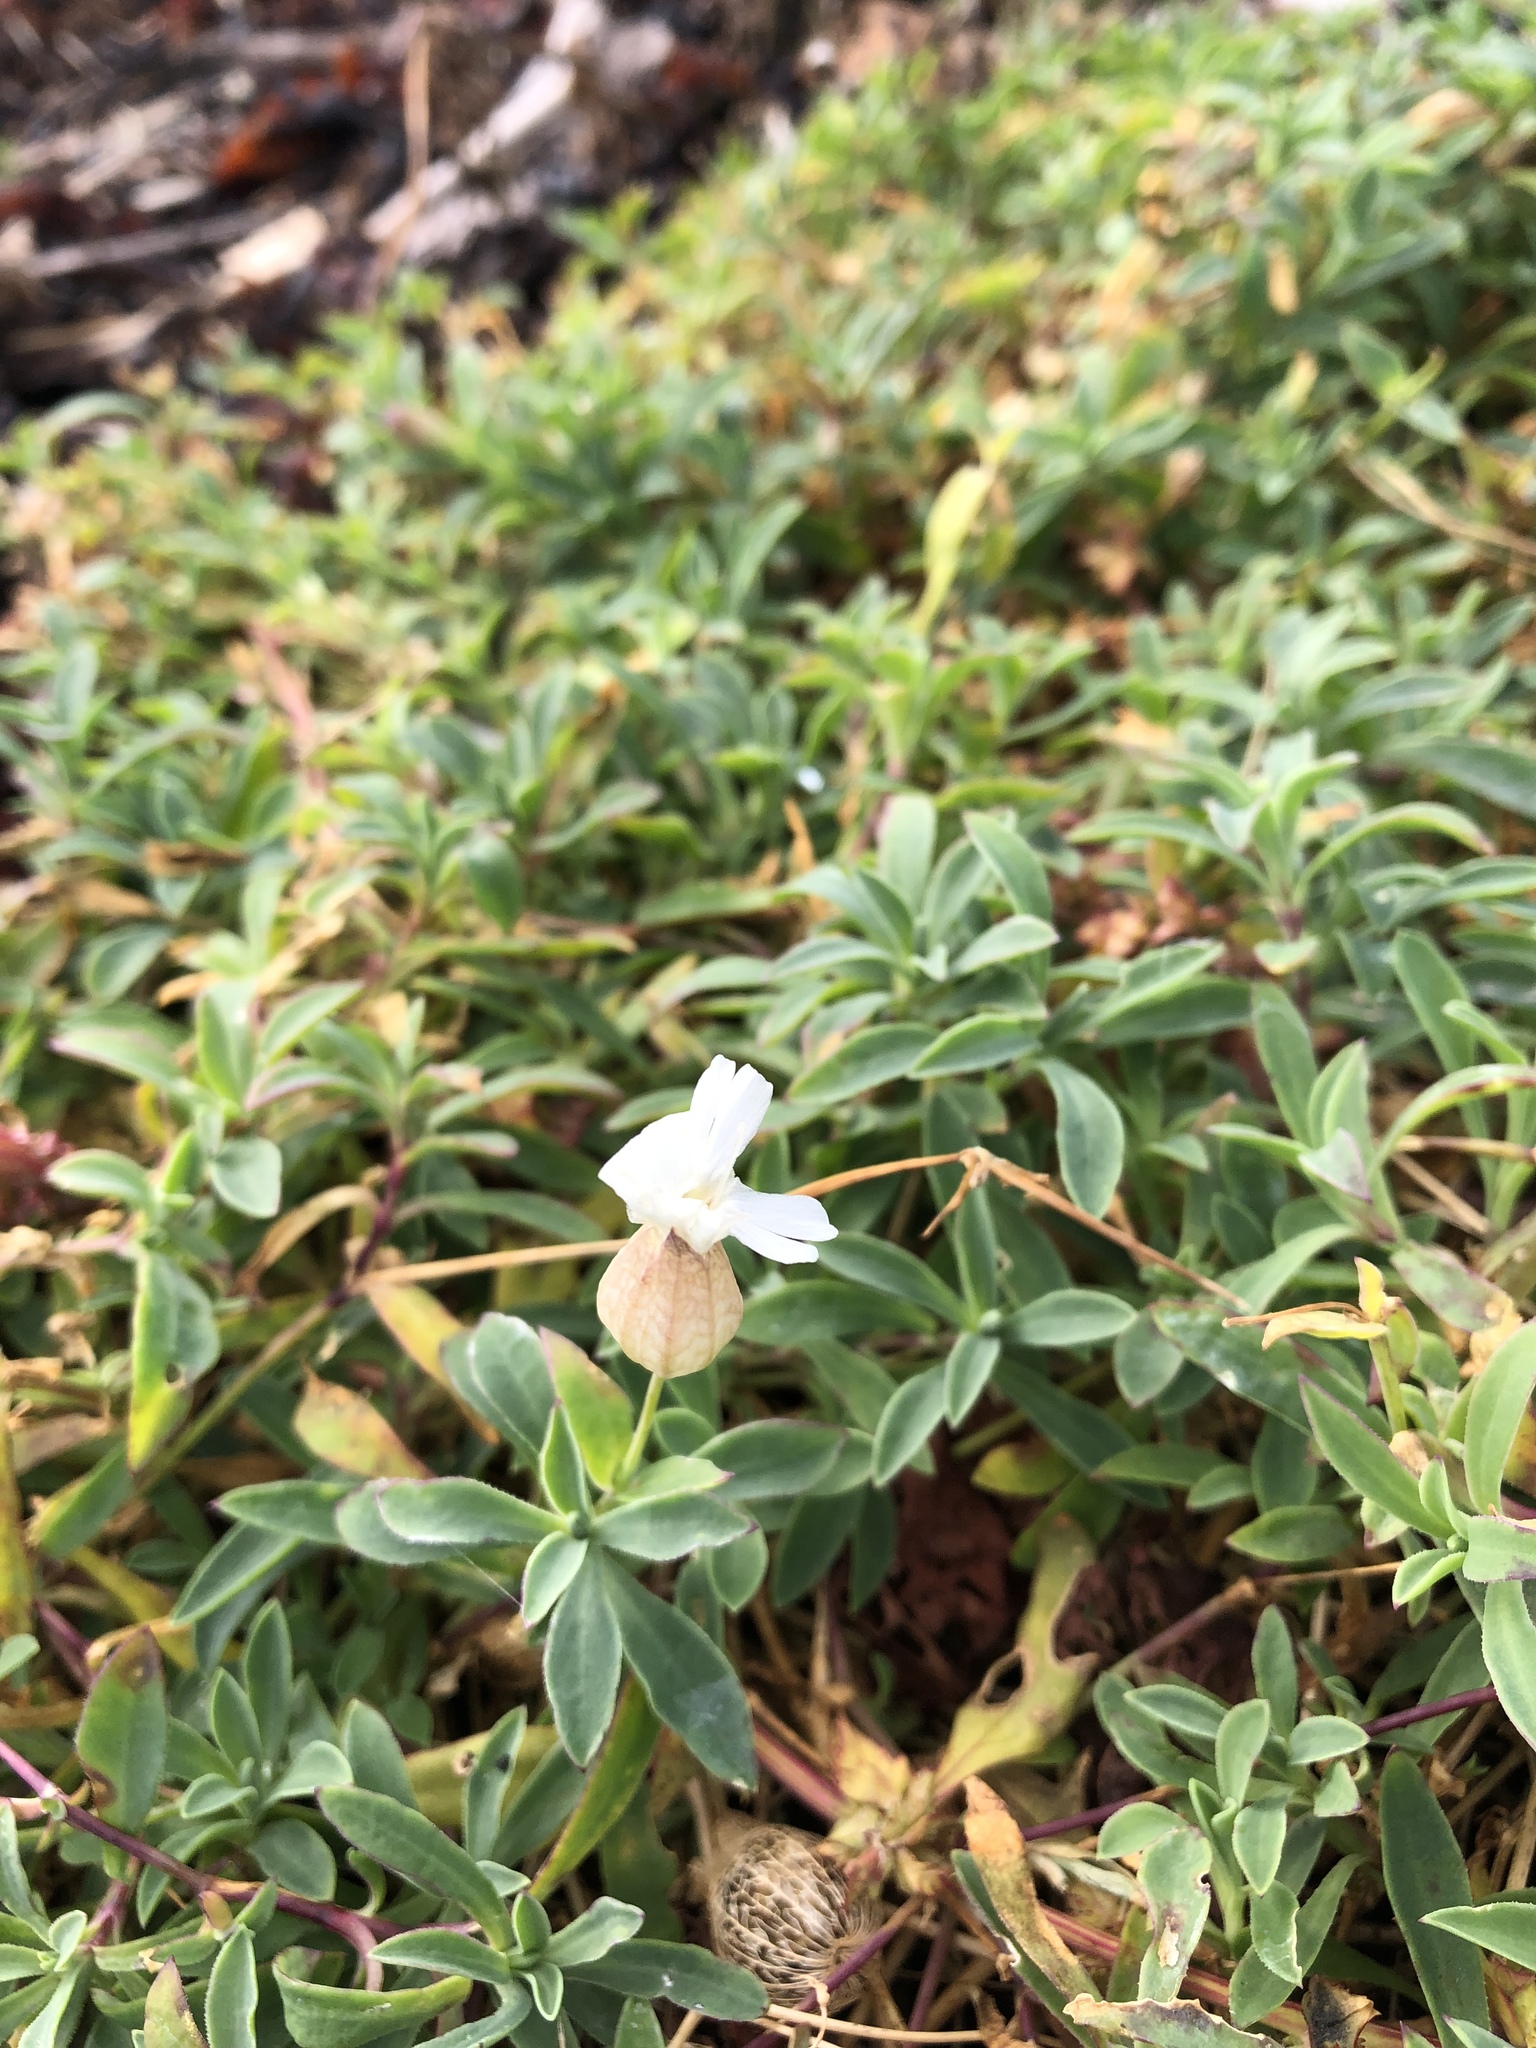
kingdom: Plantae
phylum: Tracheophyta
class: Magnoliopsida
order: Caryophyllales
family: Caryophyllaceae
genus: Silene
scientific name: Silene uniflora
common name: Sea campion
